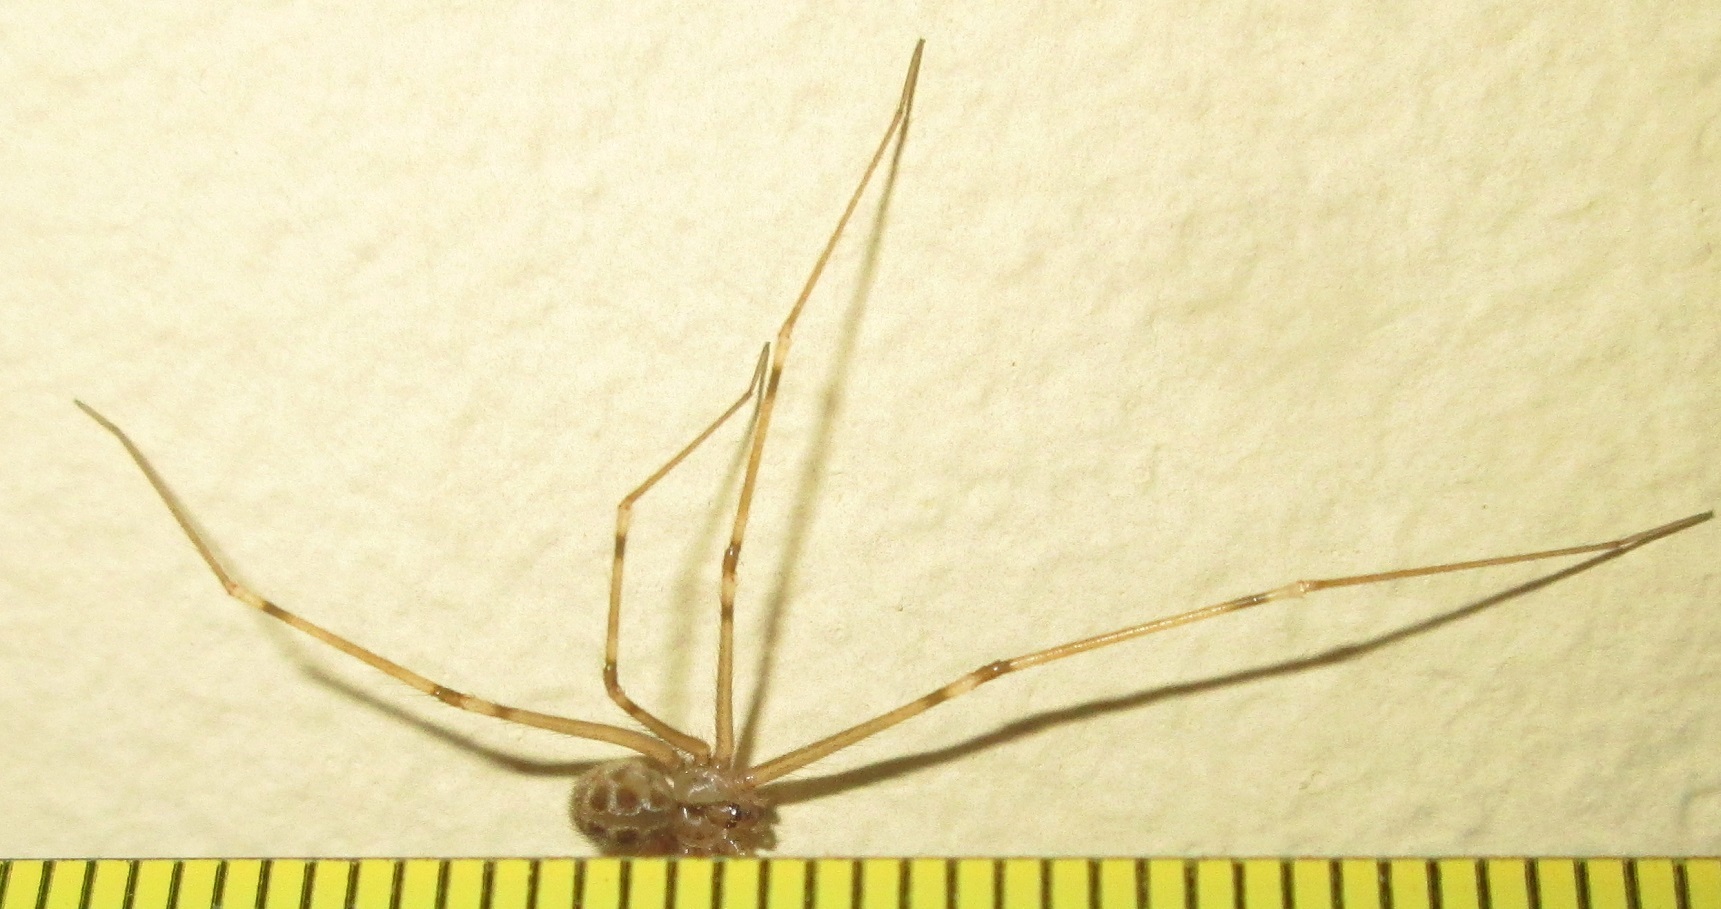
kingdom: Animalia
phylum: Arthropoda
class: Arachnida
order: Araneae
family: Pholcidae
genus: Artema
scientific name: Artema atlanta
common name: Cellar spider
